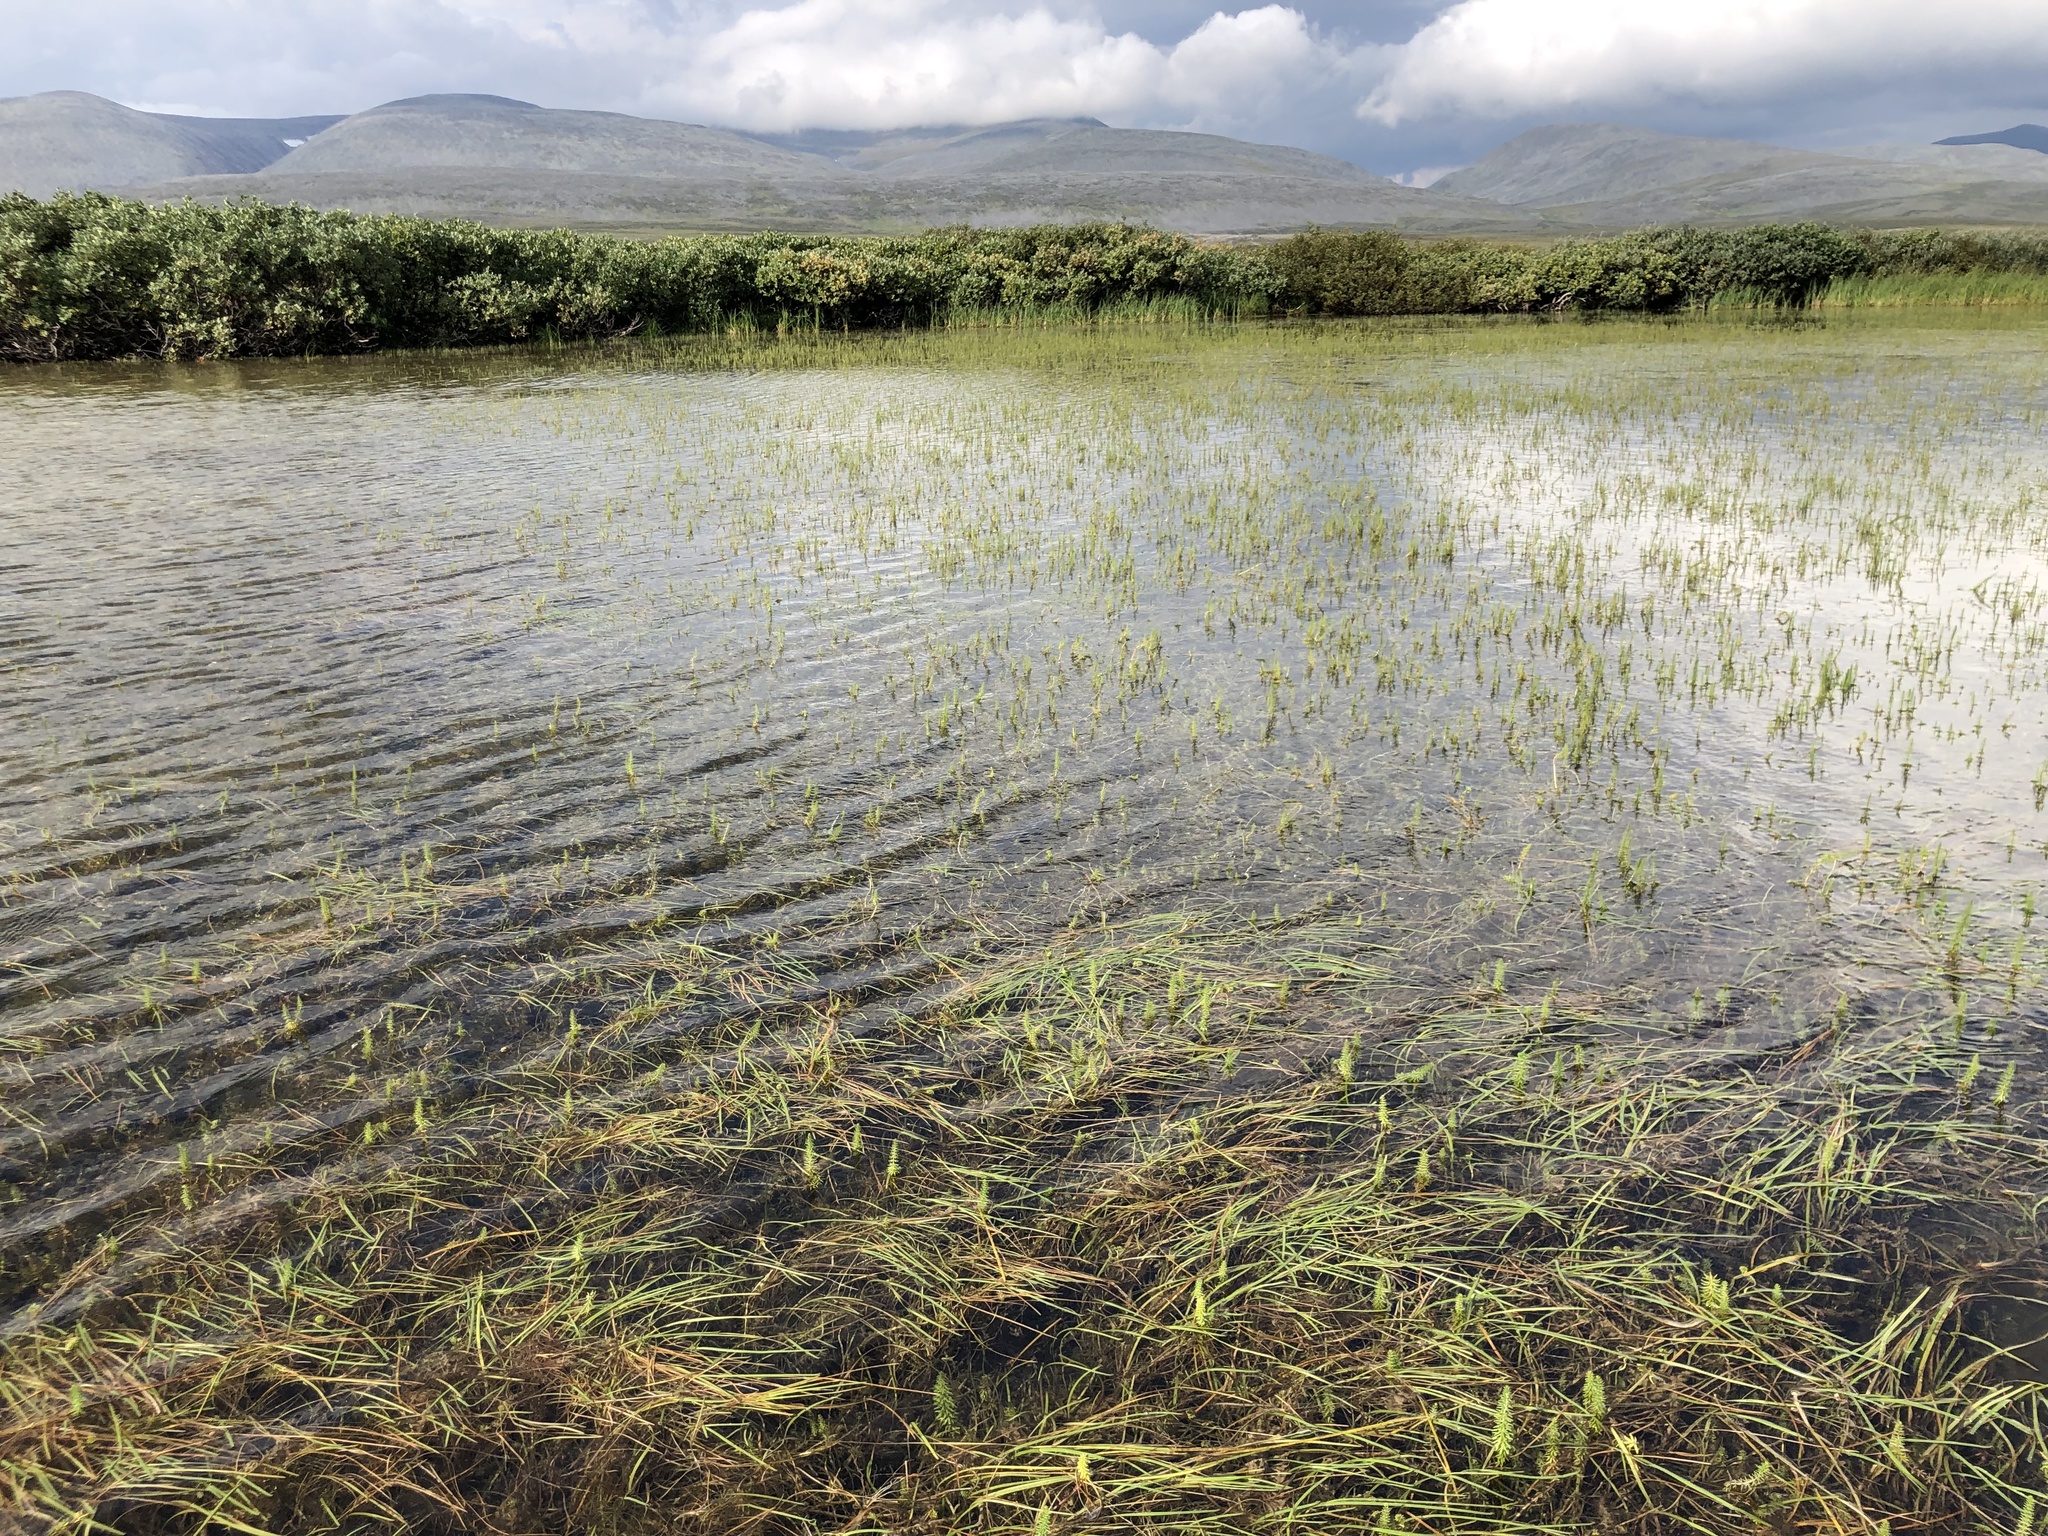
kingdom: Plantae
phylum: Tracheophyta
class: Liliopsida
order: Poales
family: Typhaceae
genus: Sparganium
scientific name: Sparganium hyperboreum
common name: Arctic burreed
